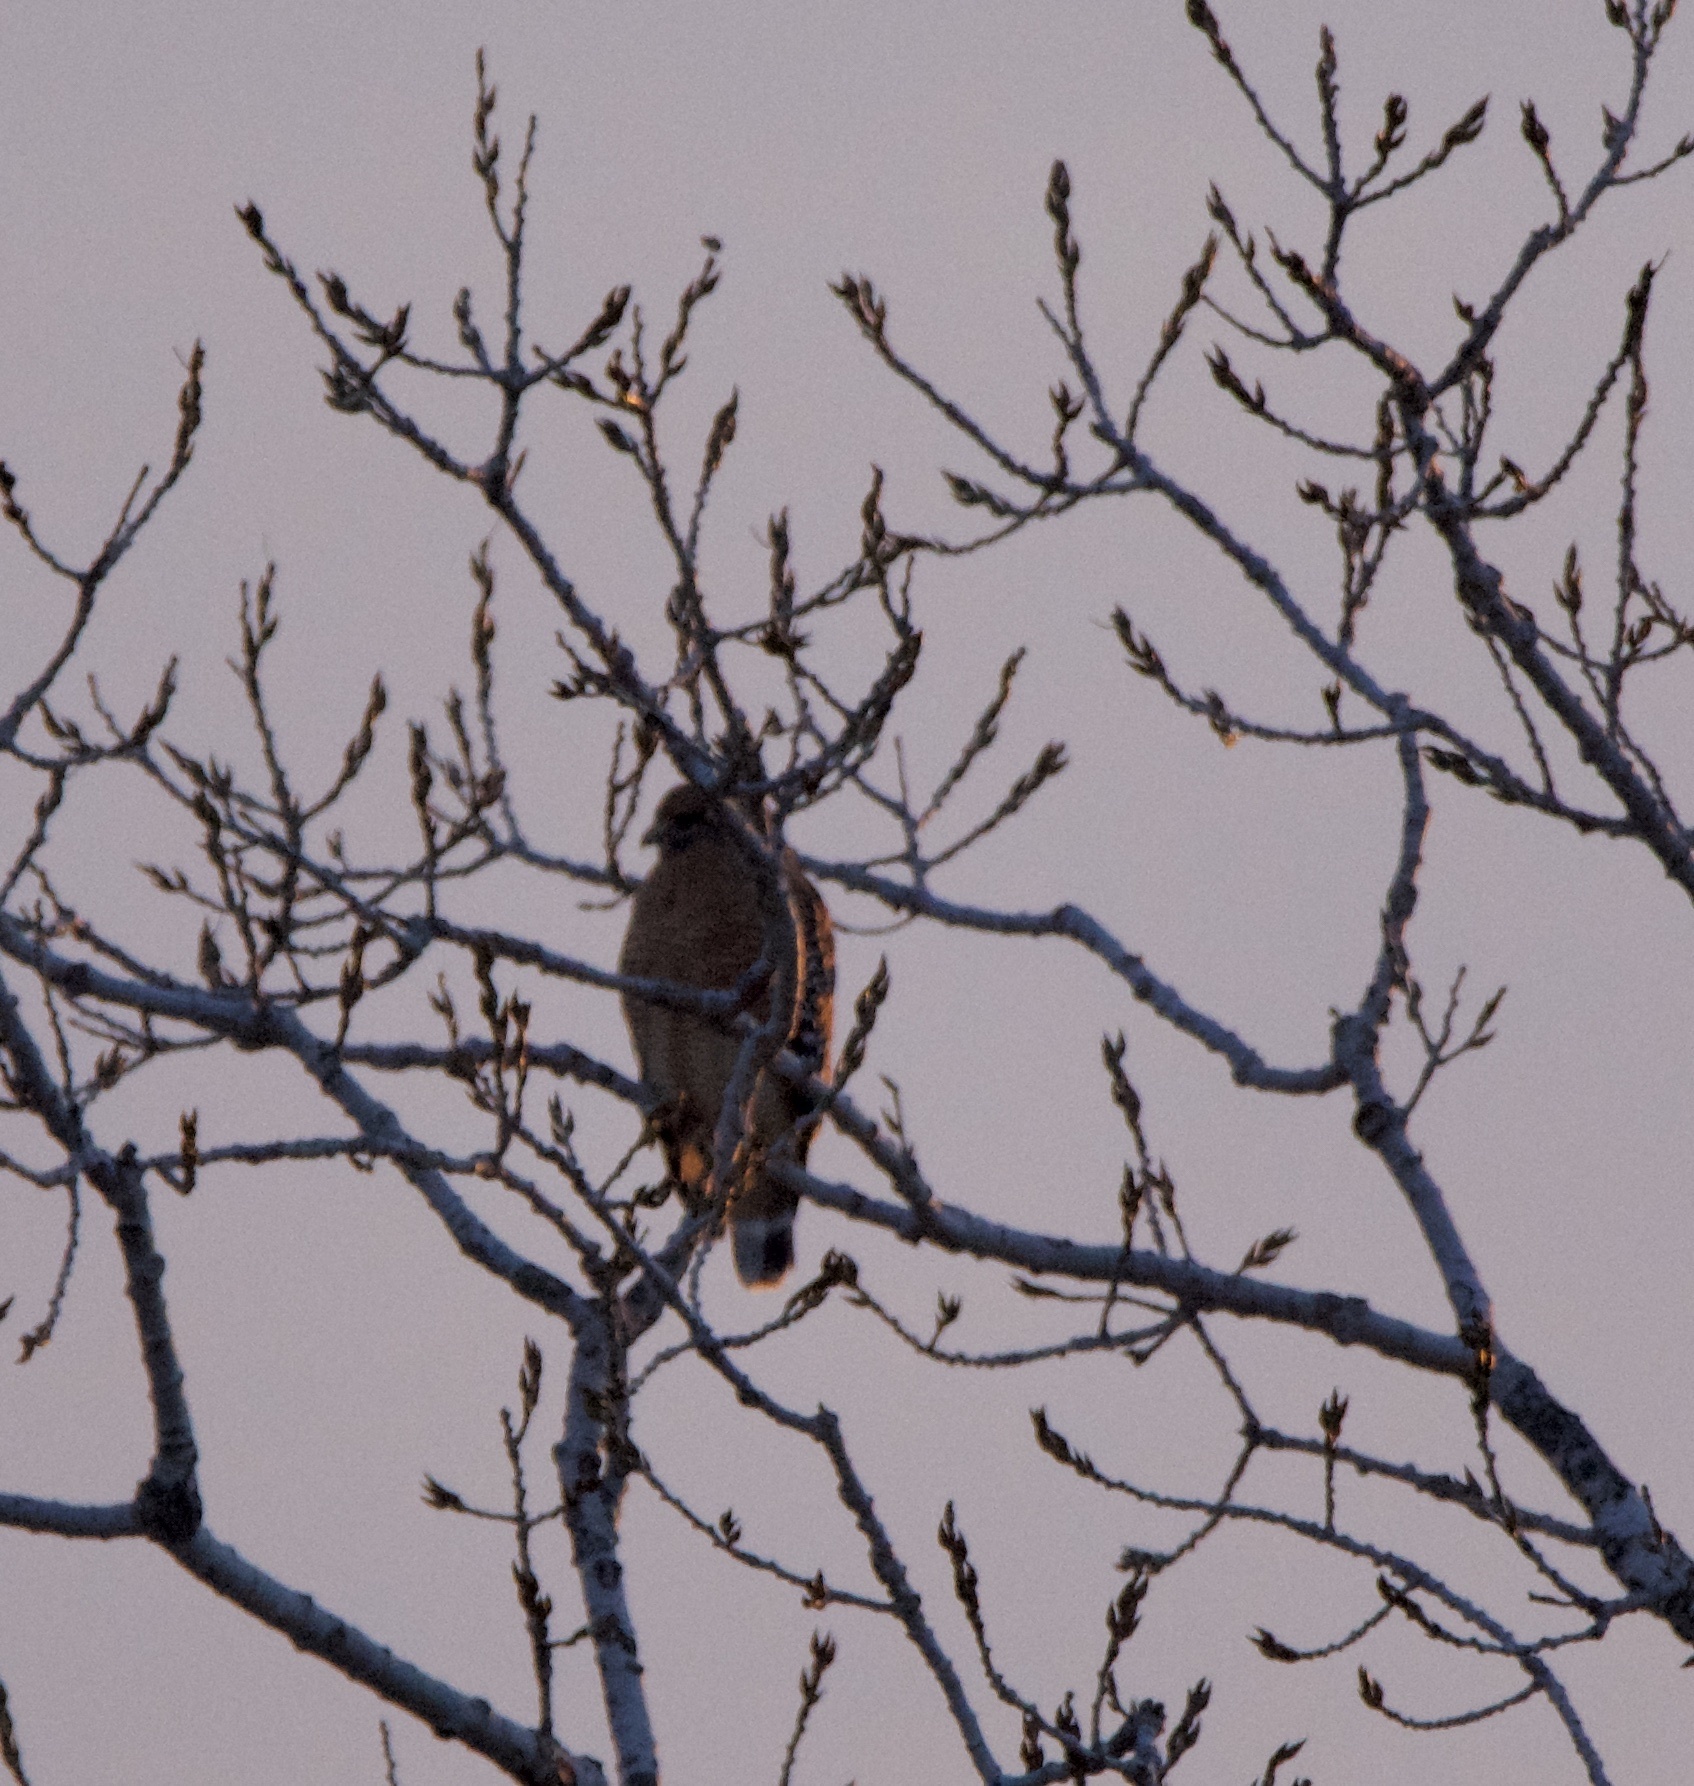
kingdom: Animalia
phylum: Chordata
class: Aves
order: Accipitriformes
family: Accipitridae
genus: Buteo
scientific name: Buteo lineatus
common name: Red-shouldered hawk
